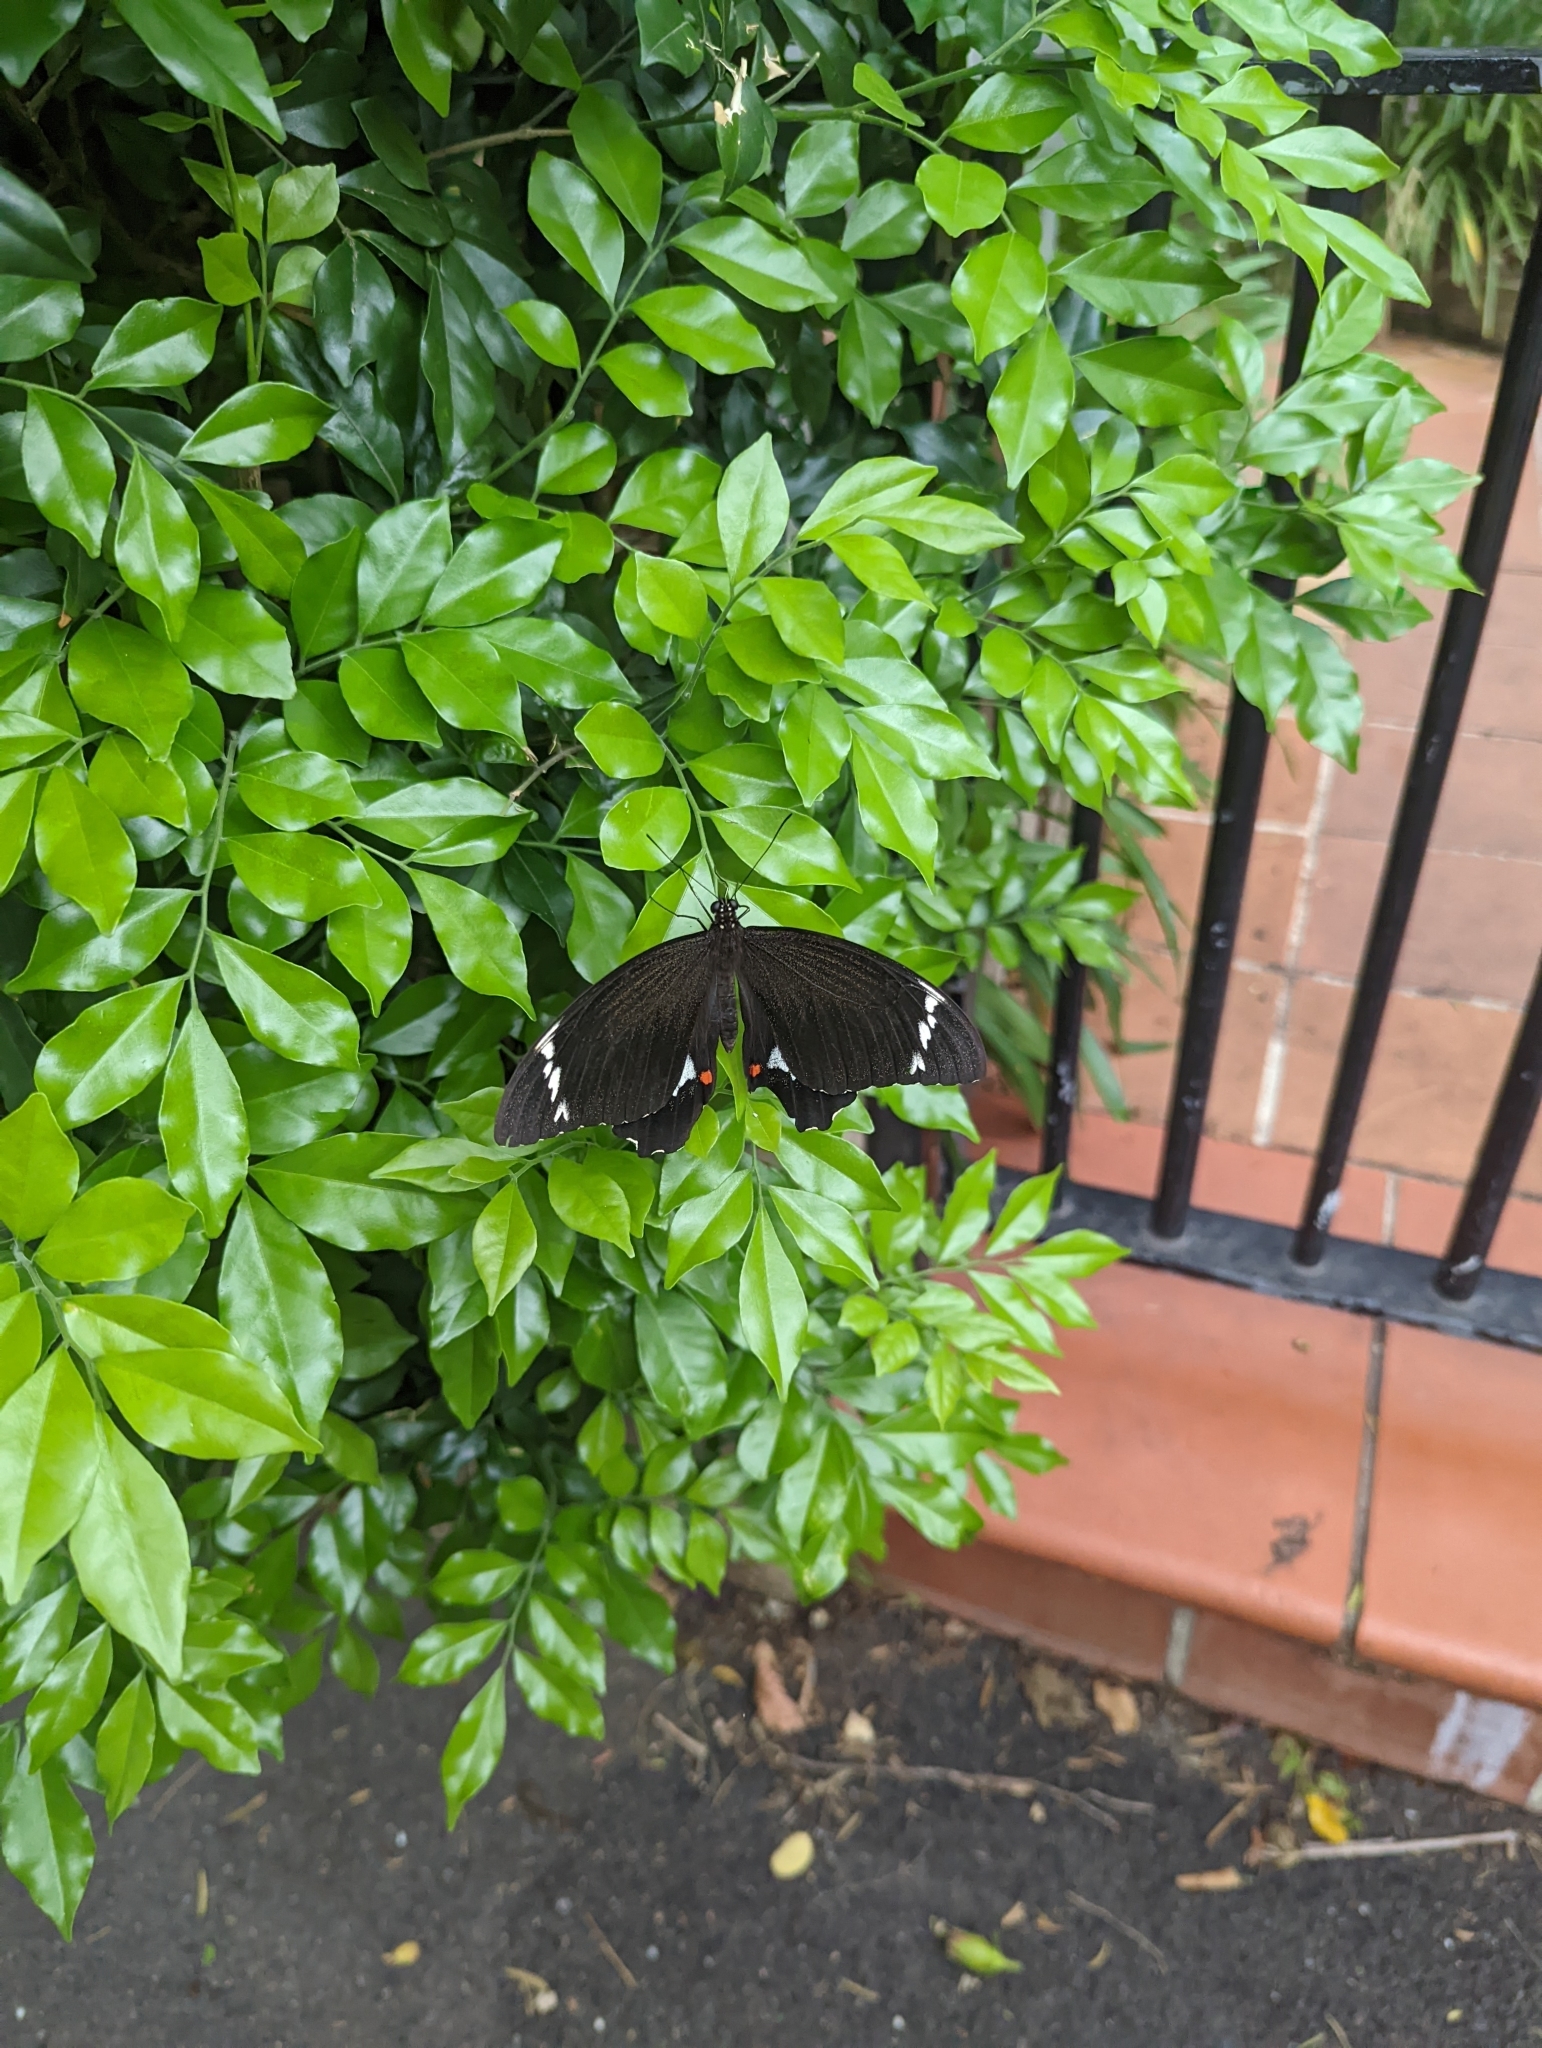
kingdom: Animalia
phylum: Arthropoda
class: Insecta
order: Lepidoptera
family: Papilionidae
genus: Papilio
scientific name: Papilio aegeus
